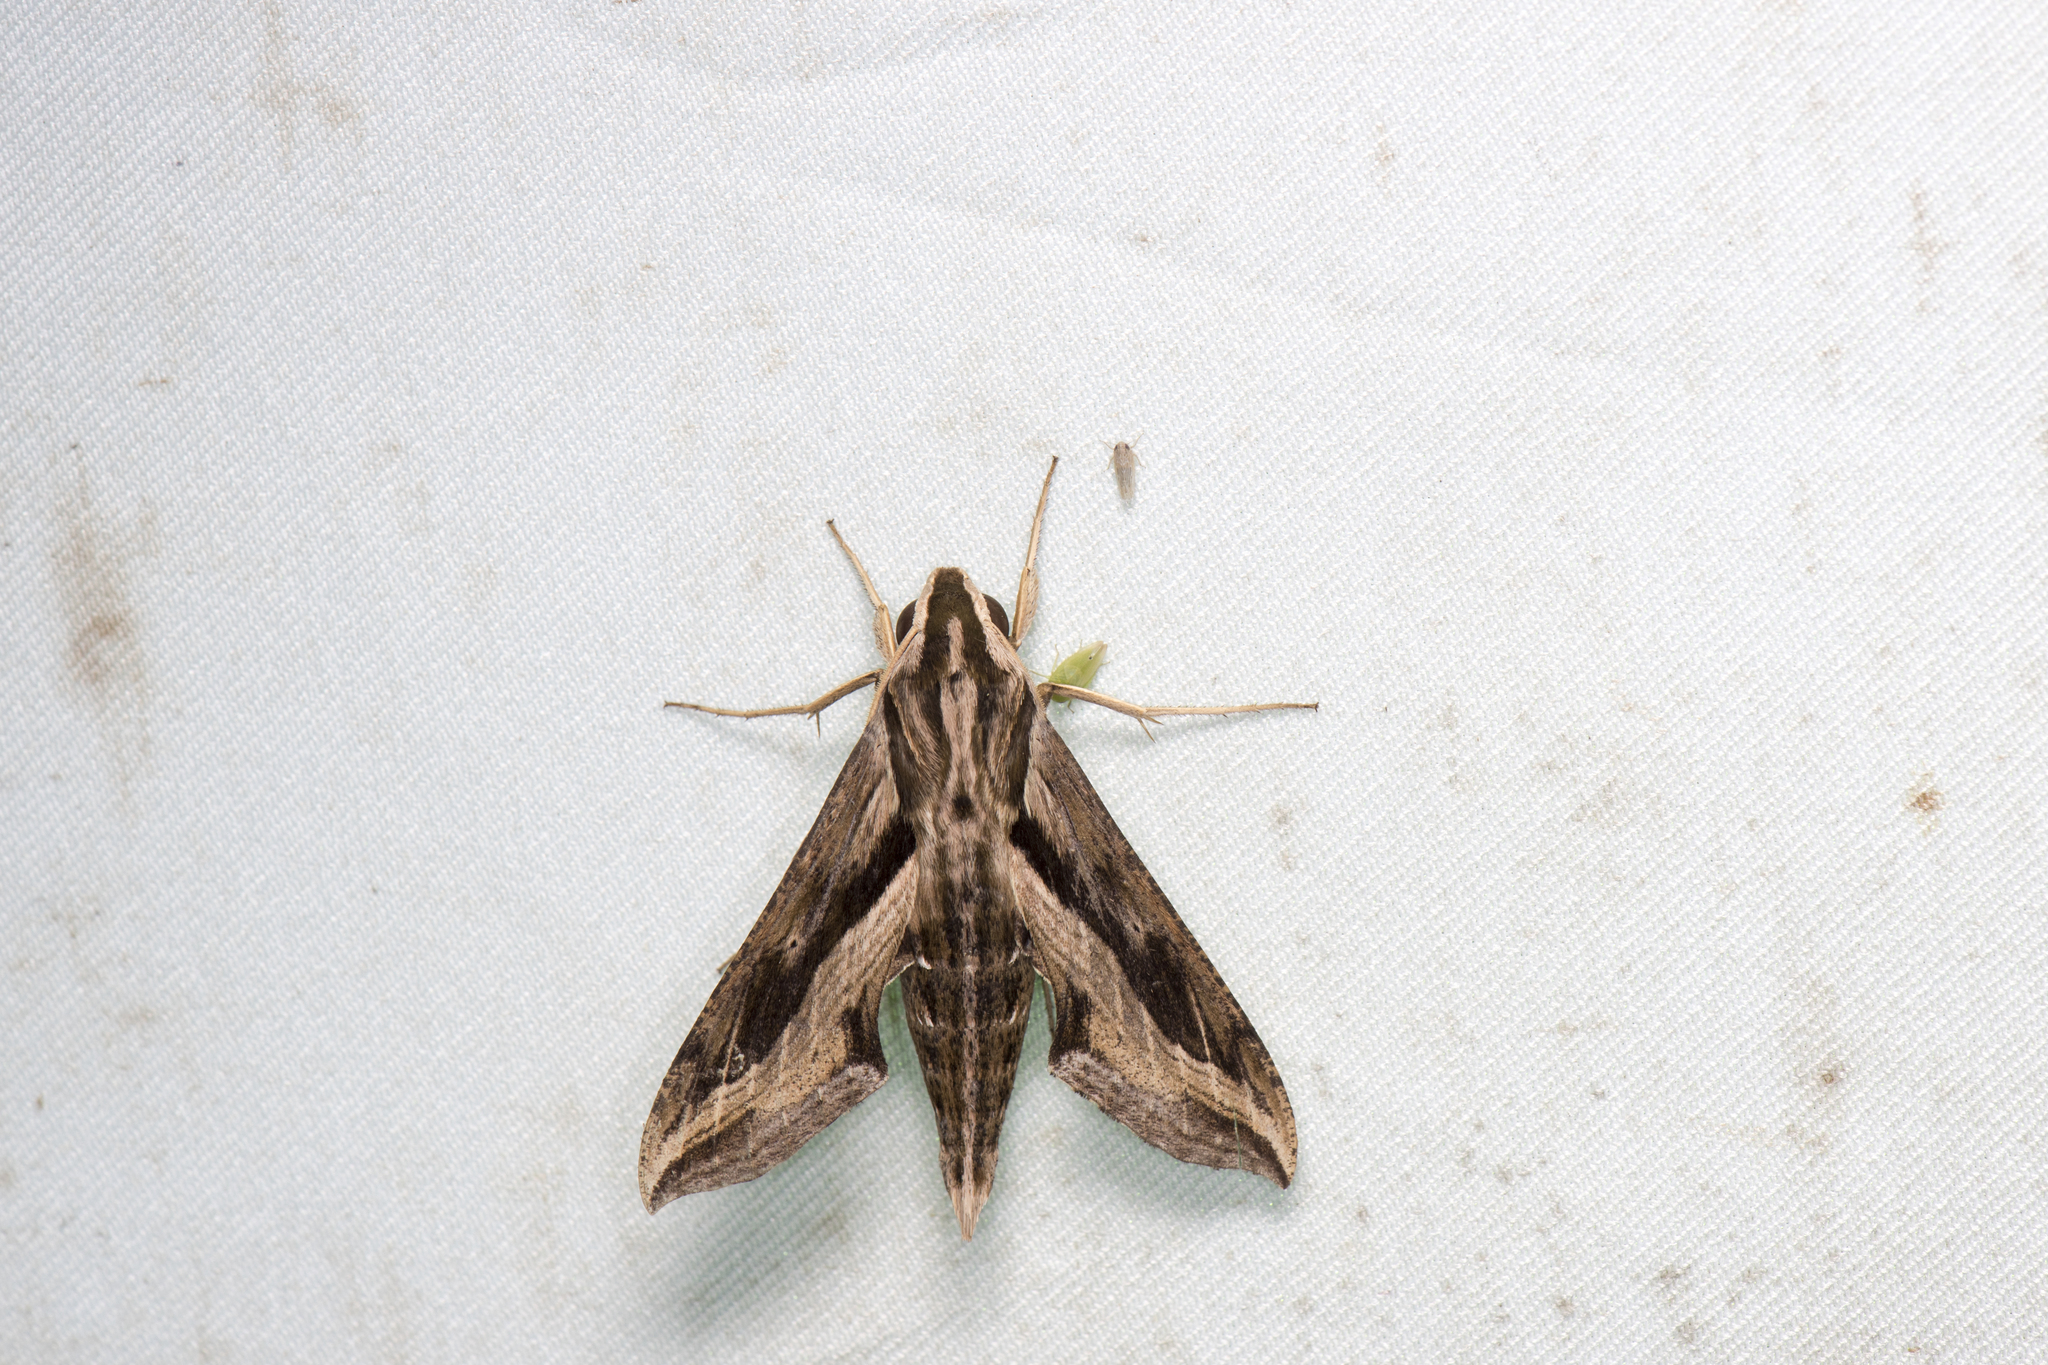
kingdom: Animalia
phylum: Arthropoda
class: Insecta
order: Lepidoptera
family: Sphingidae
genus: Hippotion
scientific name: Hippotion velox
